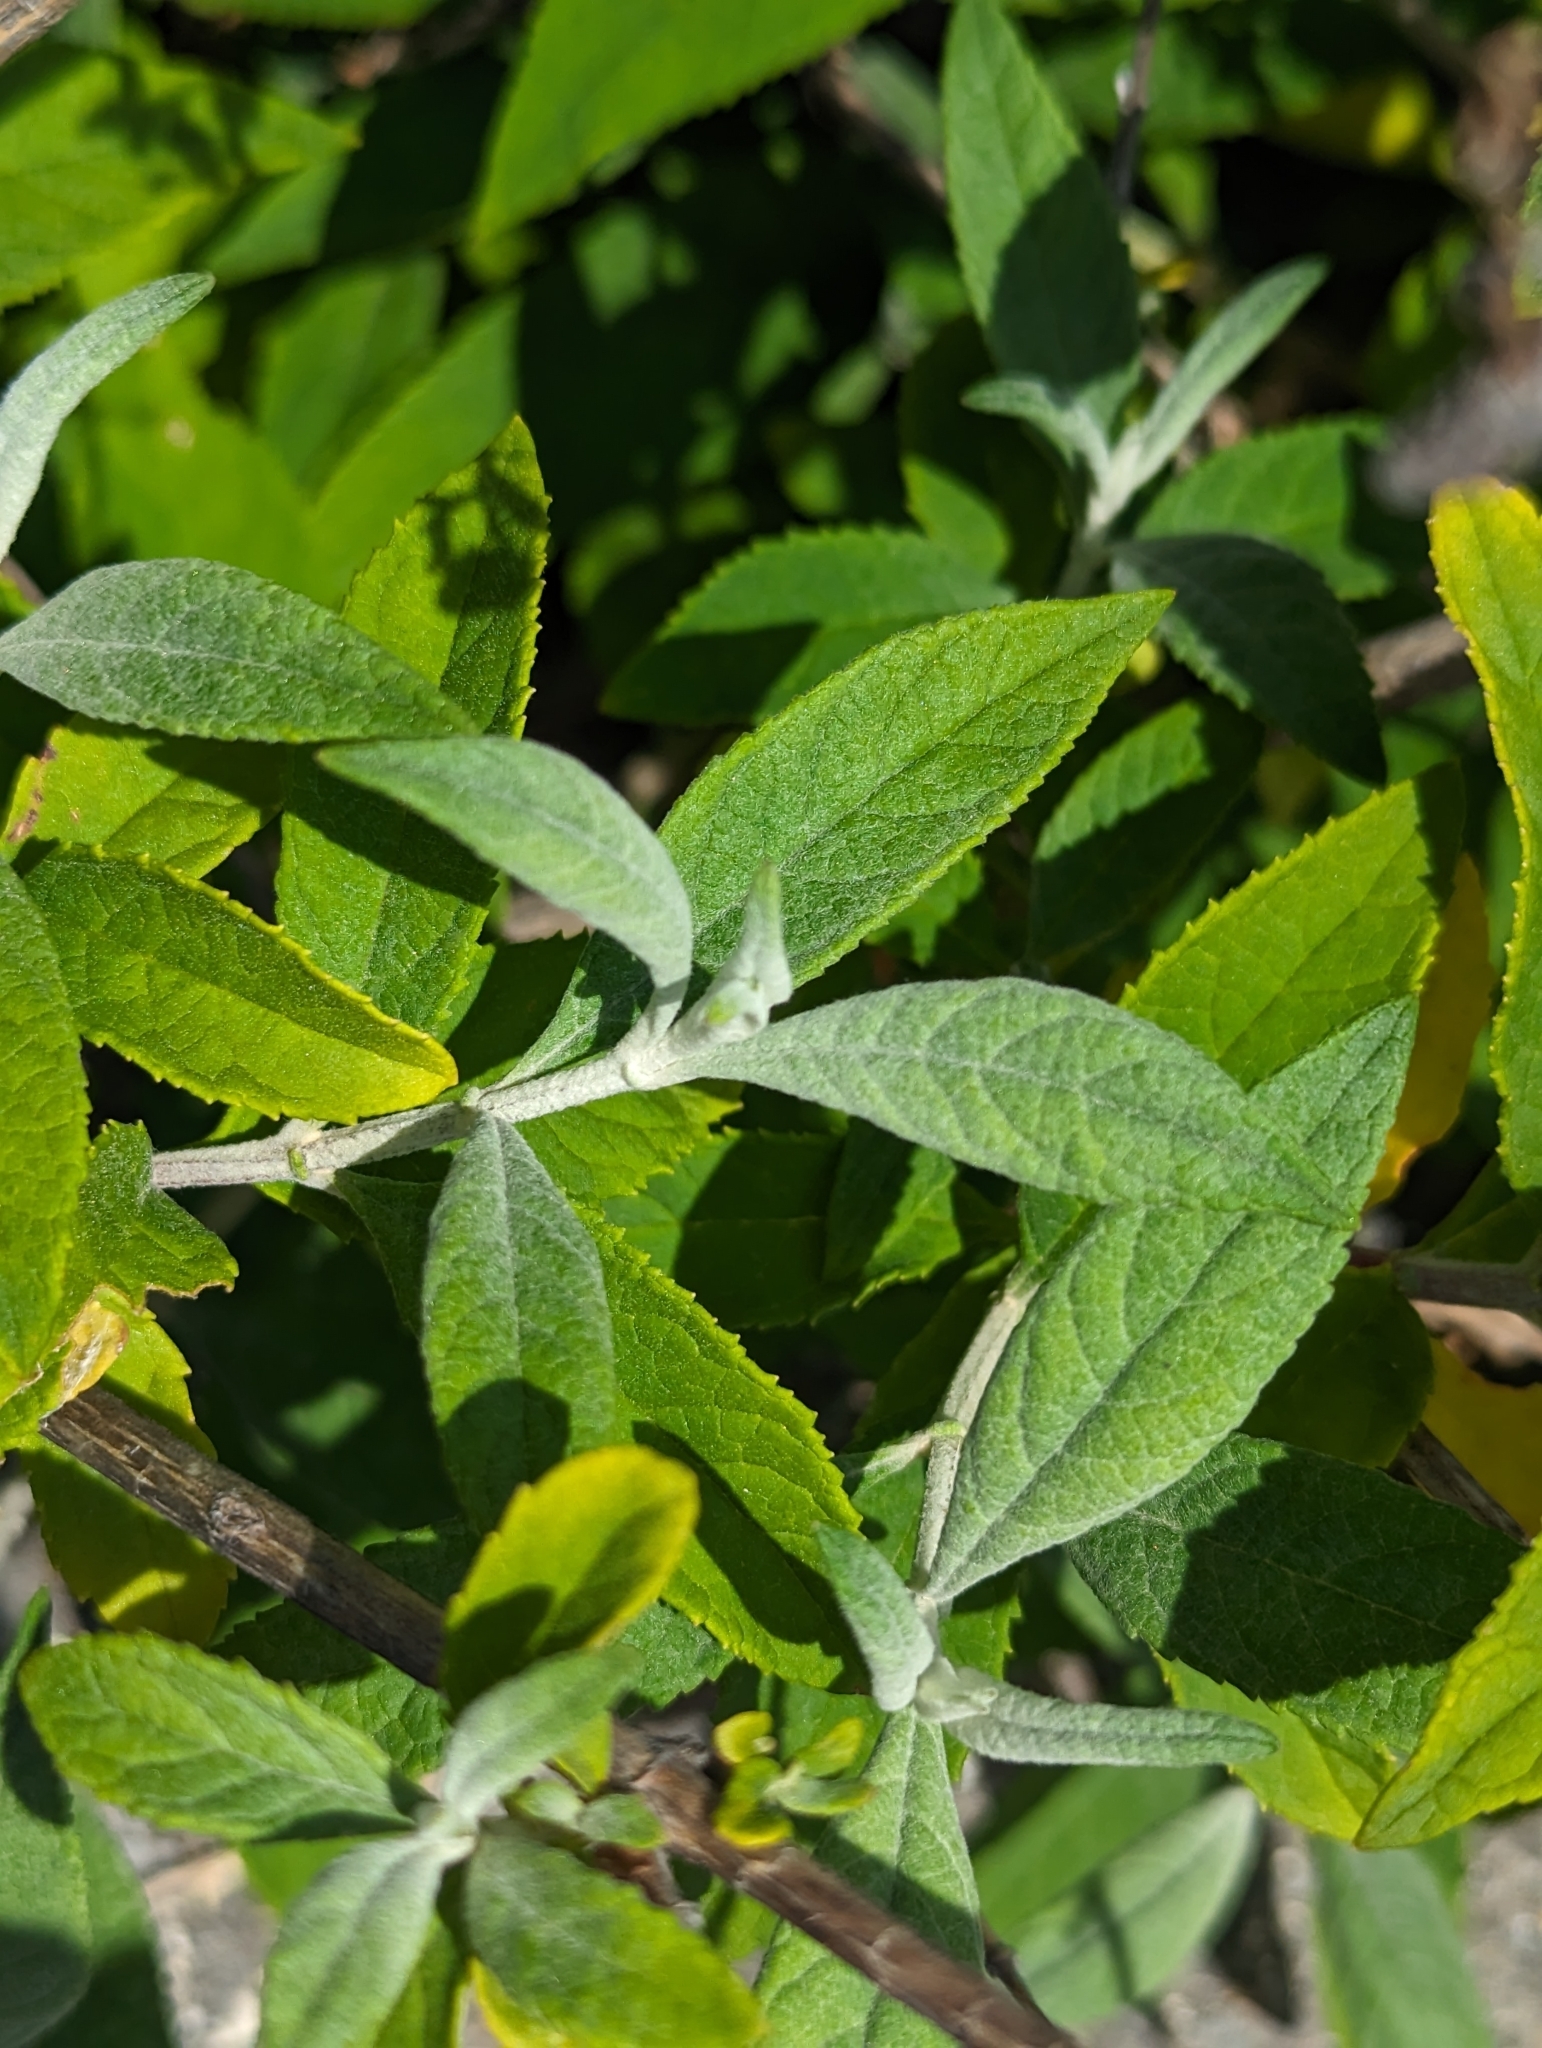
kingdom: Plantae
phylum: Tracheophyta
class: Magnoliopsida
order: Lamiales
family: Scrophulariaceae
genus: Buddleja
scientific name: Buddleja davidii
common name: Butterfly-bush
